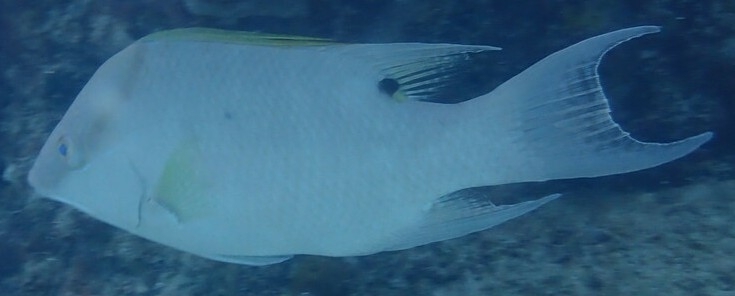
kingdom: Animalia
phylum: Chordata
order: Perciformes
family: Labridae
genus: Lachnolaimus
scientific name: Lachnolaimus maximus
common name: Hogfish
